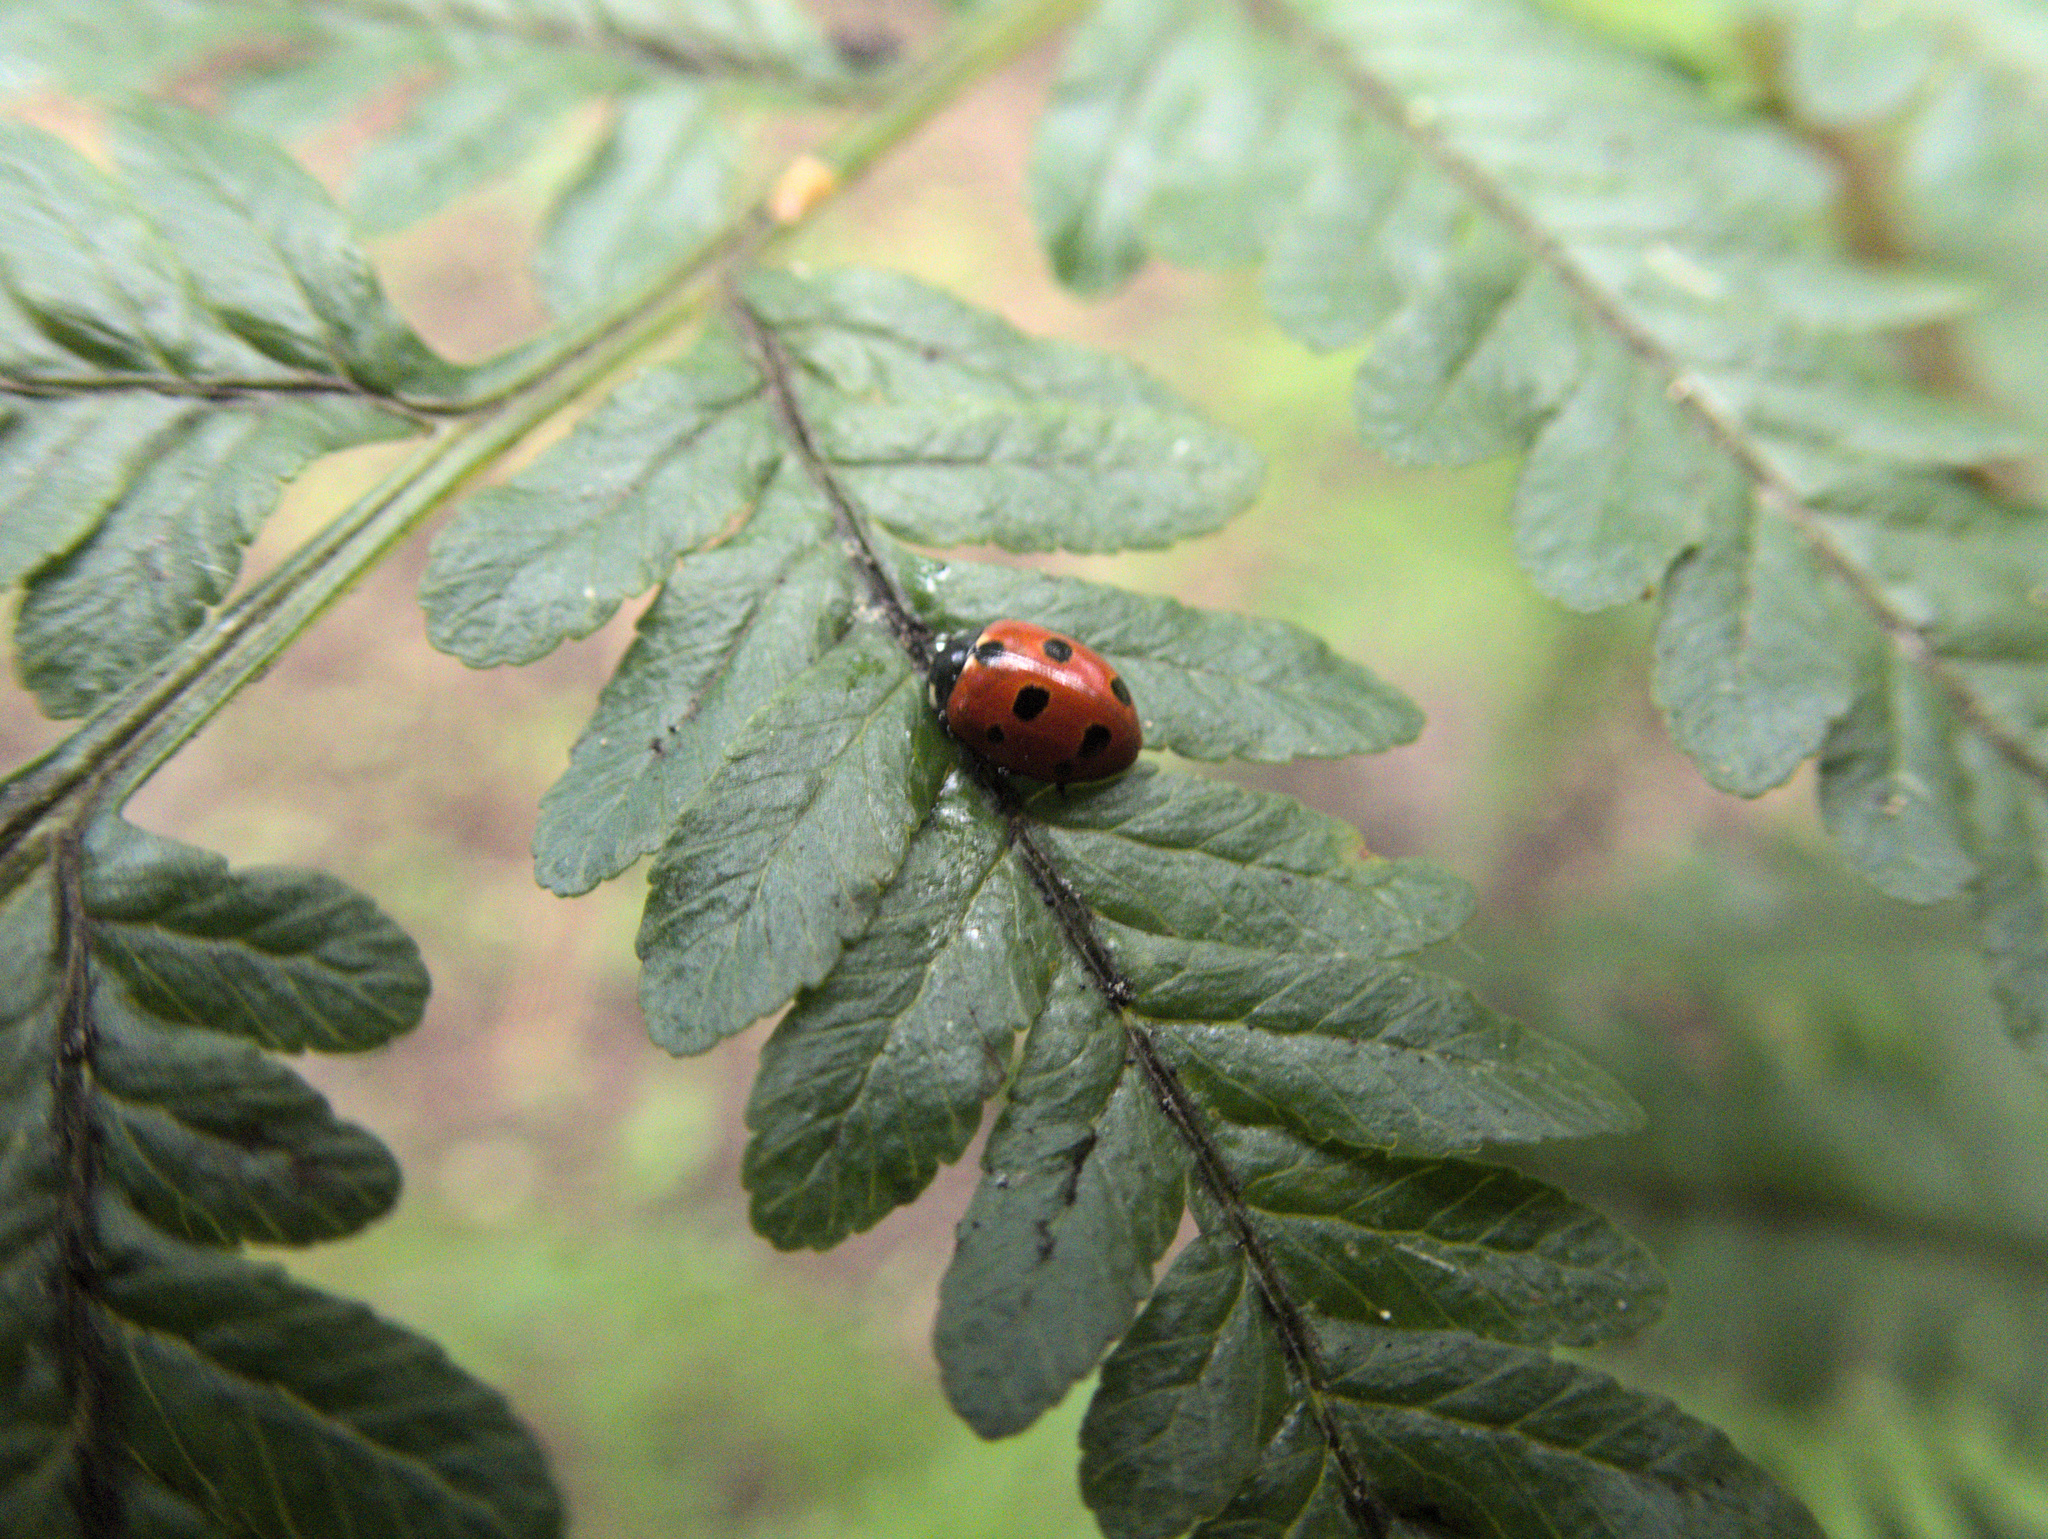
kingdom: Animalia
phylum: Arthropoda
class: Insecta
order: Coleoptera
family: Coccinellidae
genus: Coccinella
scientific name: Coccinella undecimpunctata
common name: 11-spot ladybird
